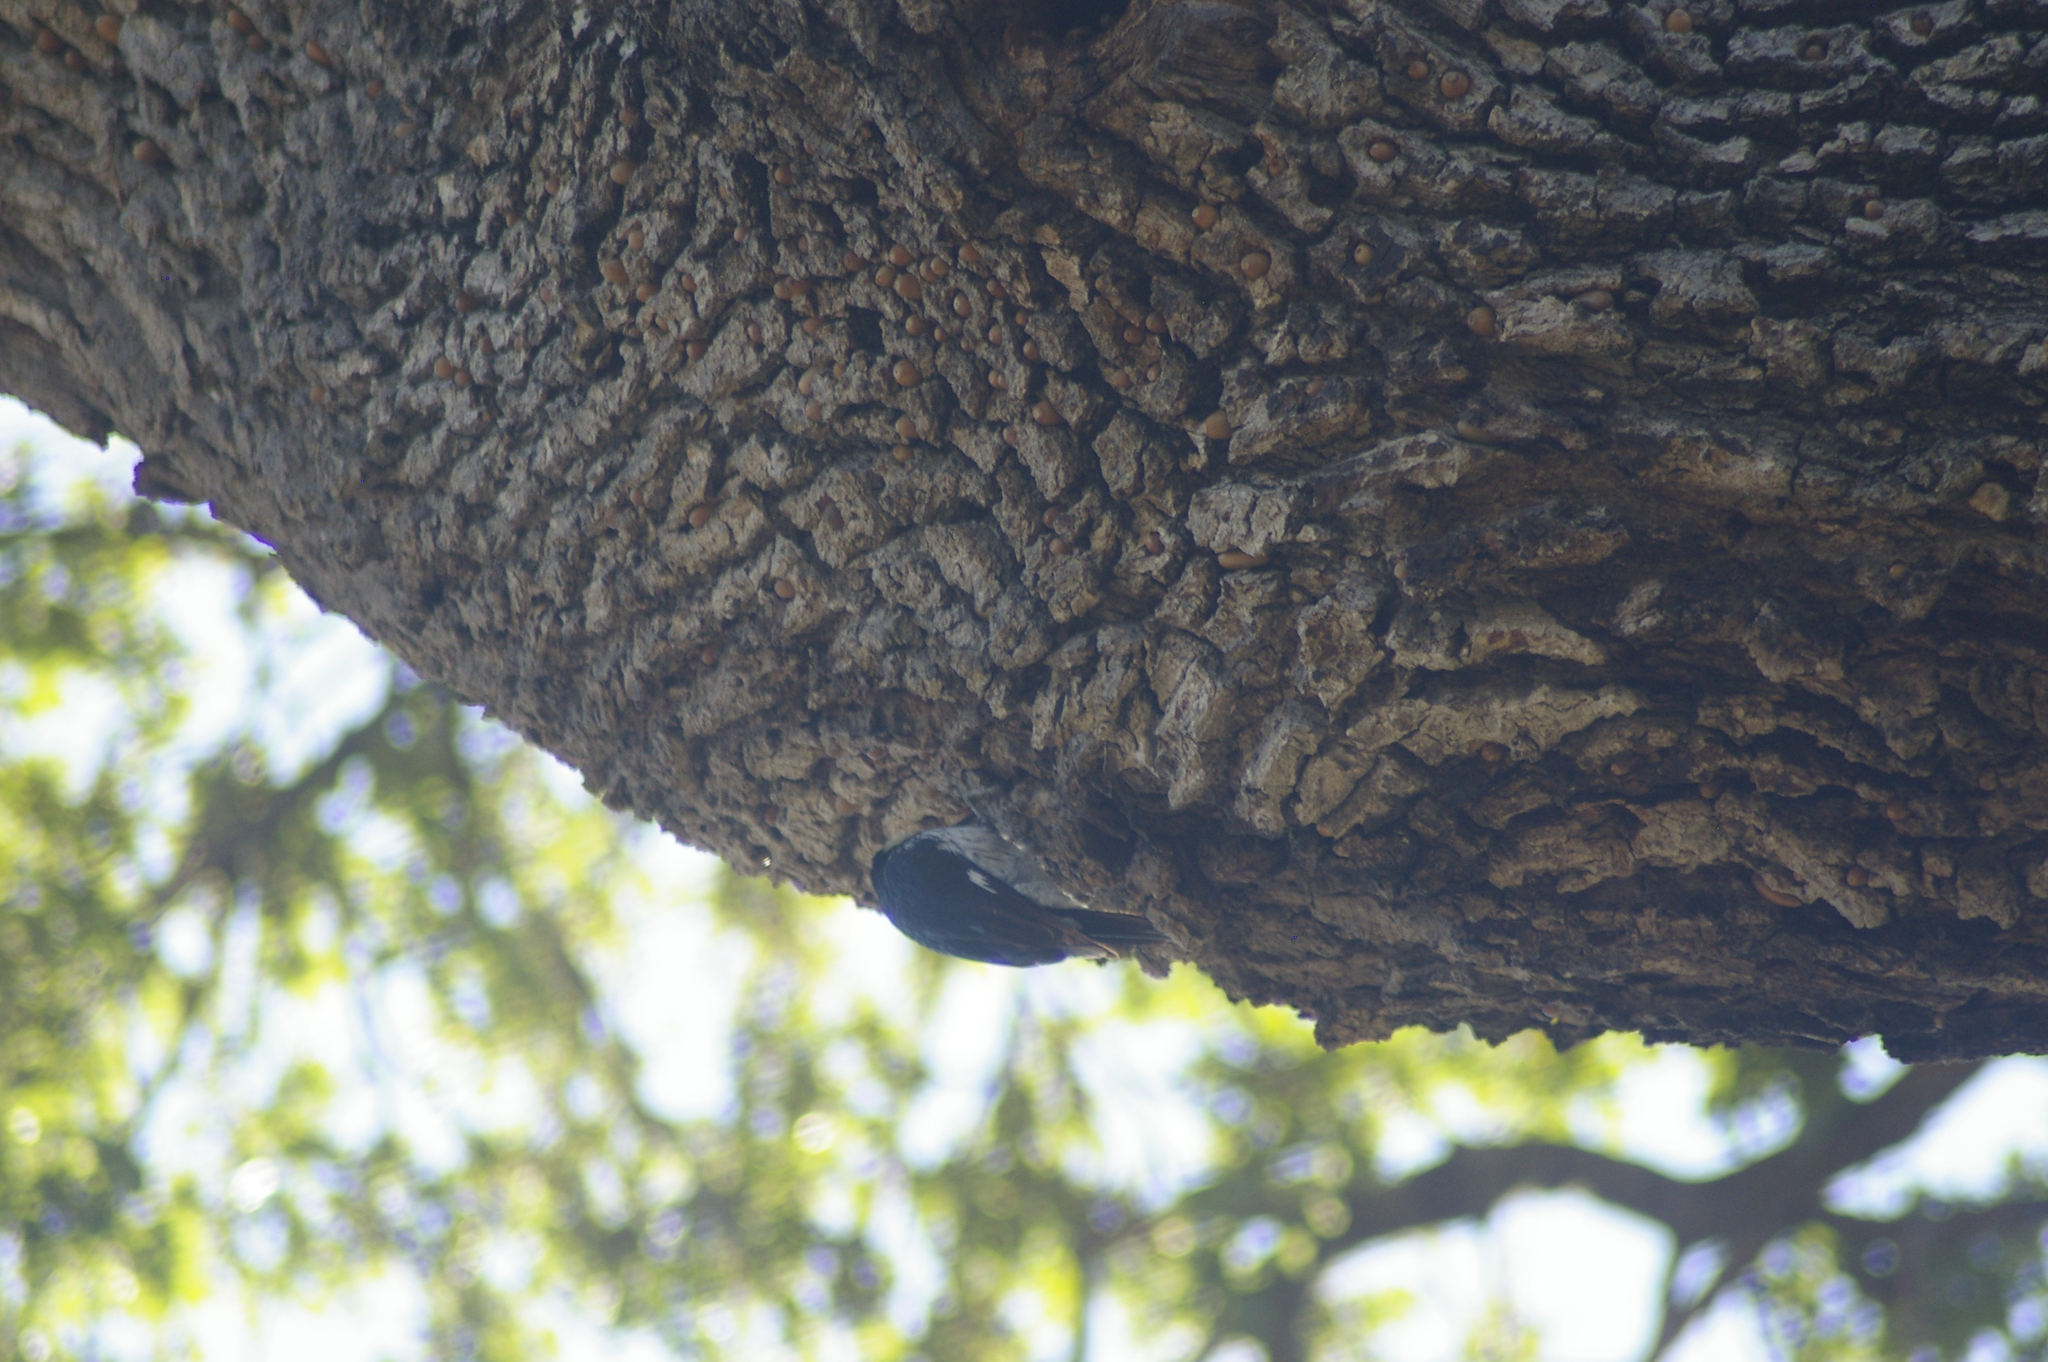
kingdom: Animalia
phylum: Chordata
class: Aves
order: Piciformes
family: Picidae
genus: Melanerpes
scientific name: Melanerpes formicivorus
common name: Acorn woodpecker
